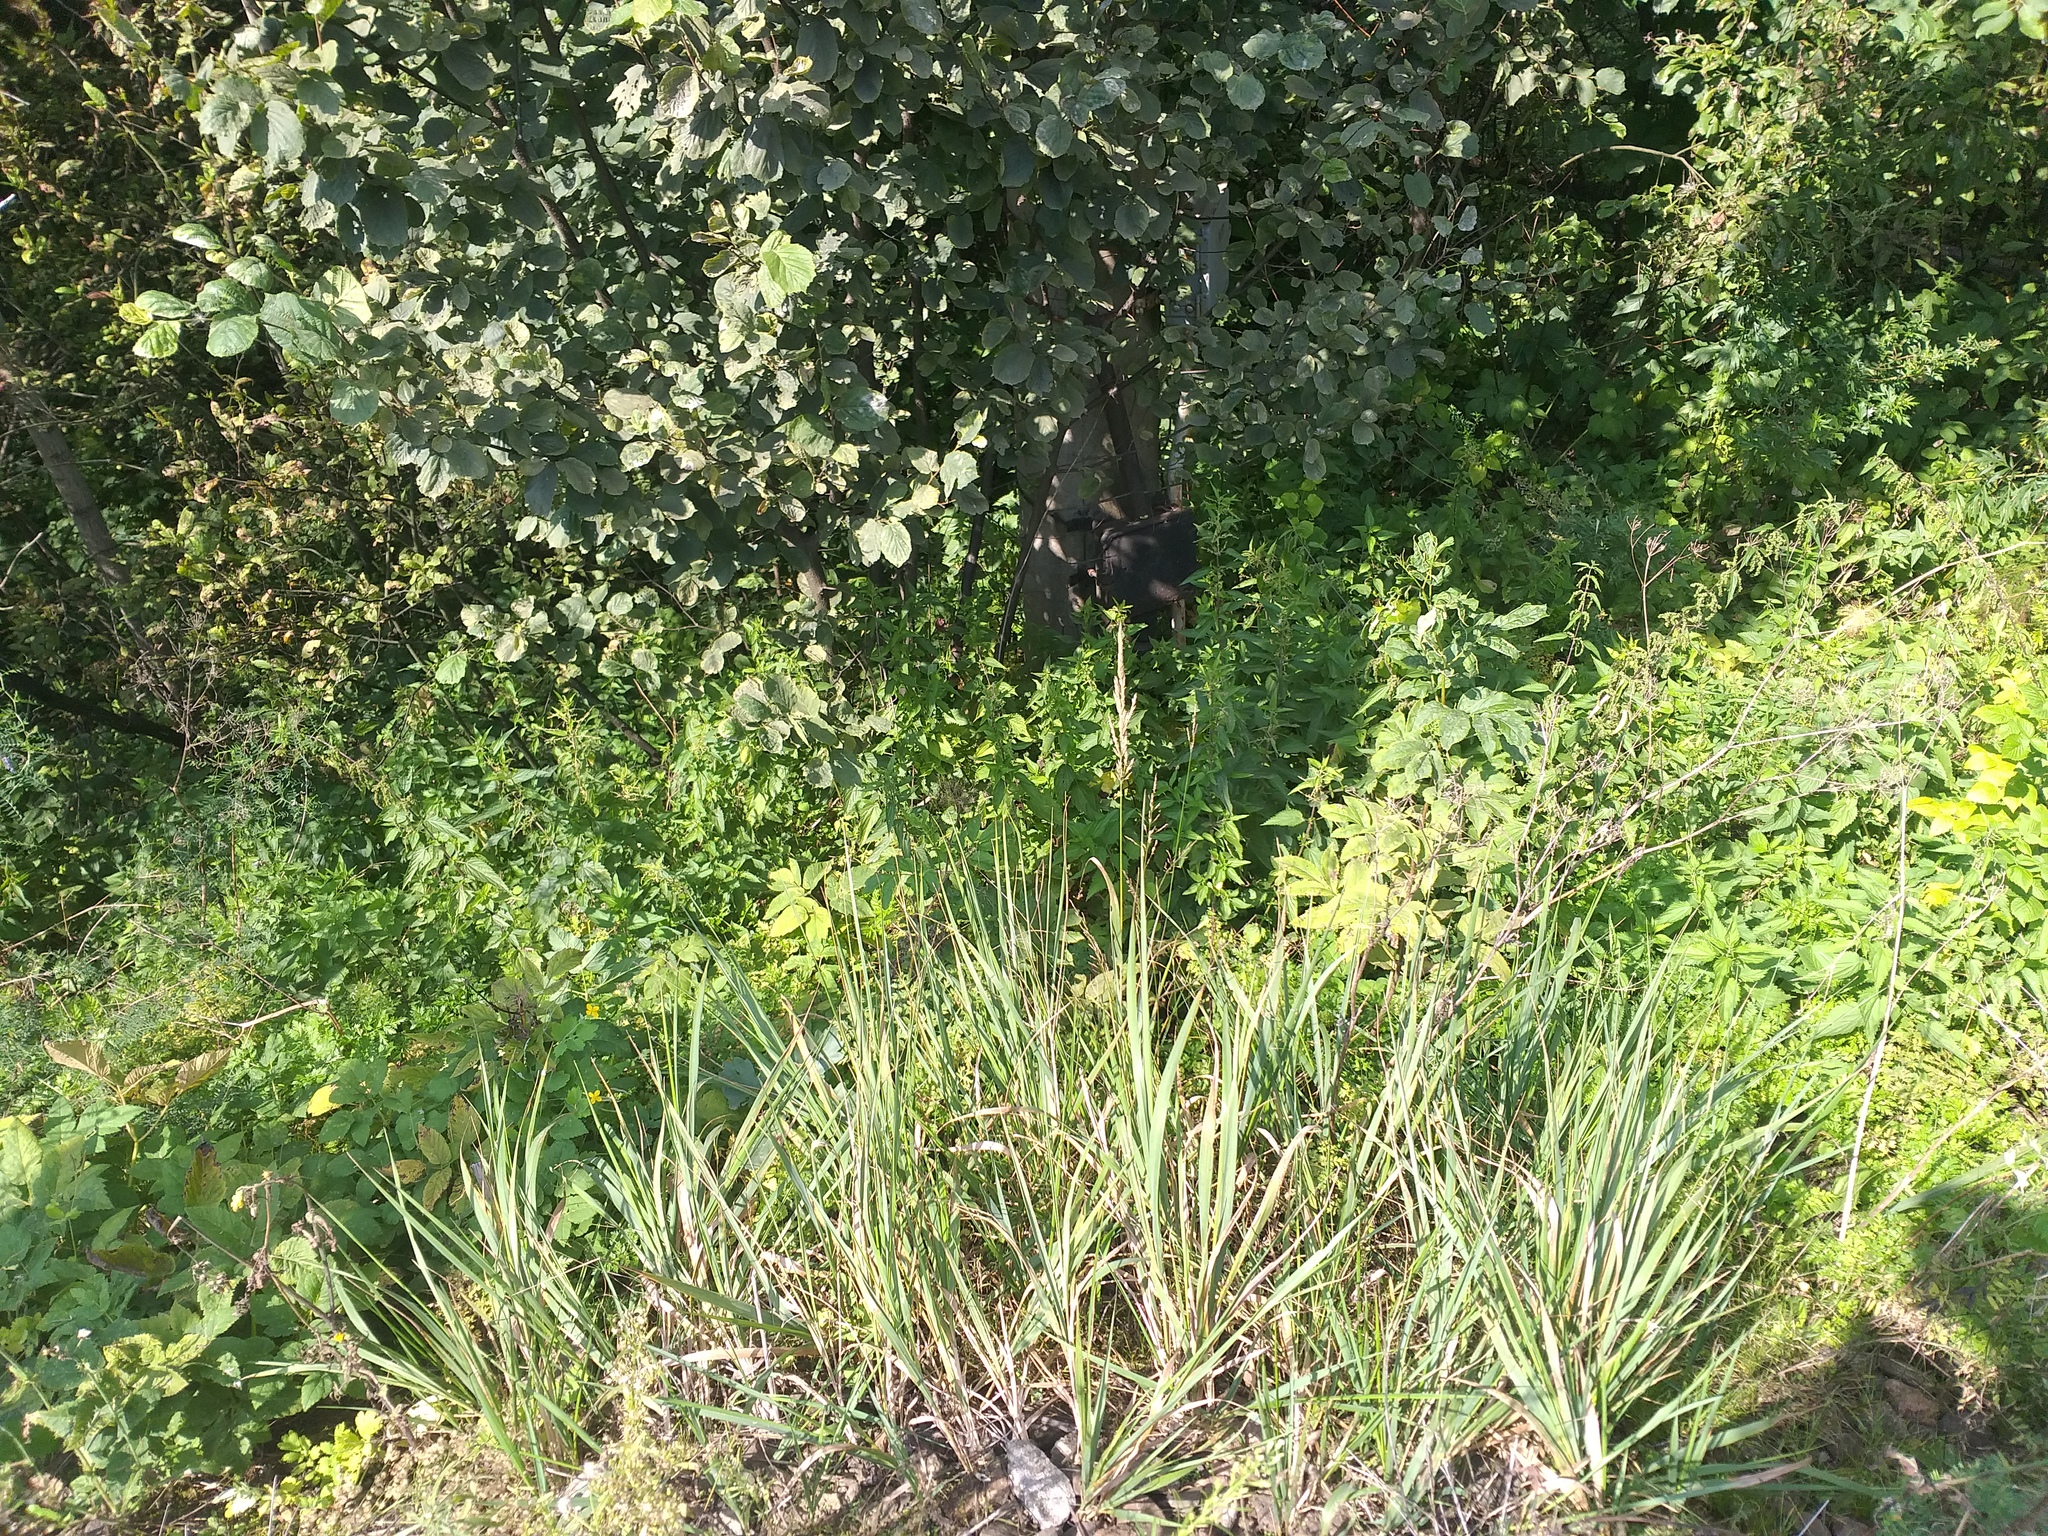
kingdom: Plantae
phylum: Tracheophyta
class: Liliopsida
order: Poales
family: Poaceae
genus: Calamagrostis
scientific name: Calamagrostis epigejos
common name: Wood small-reed
